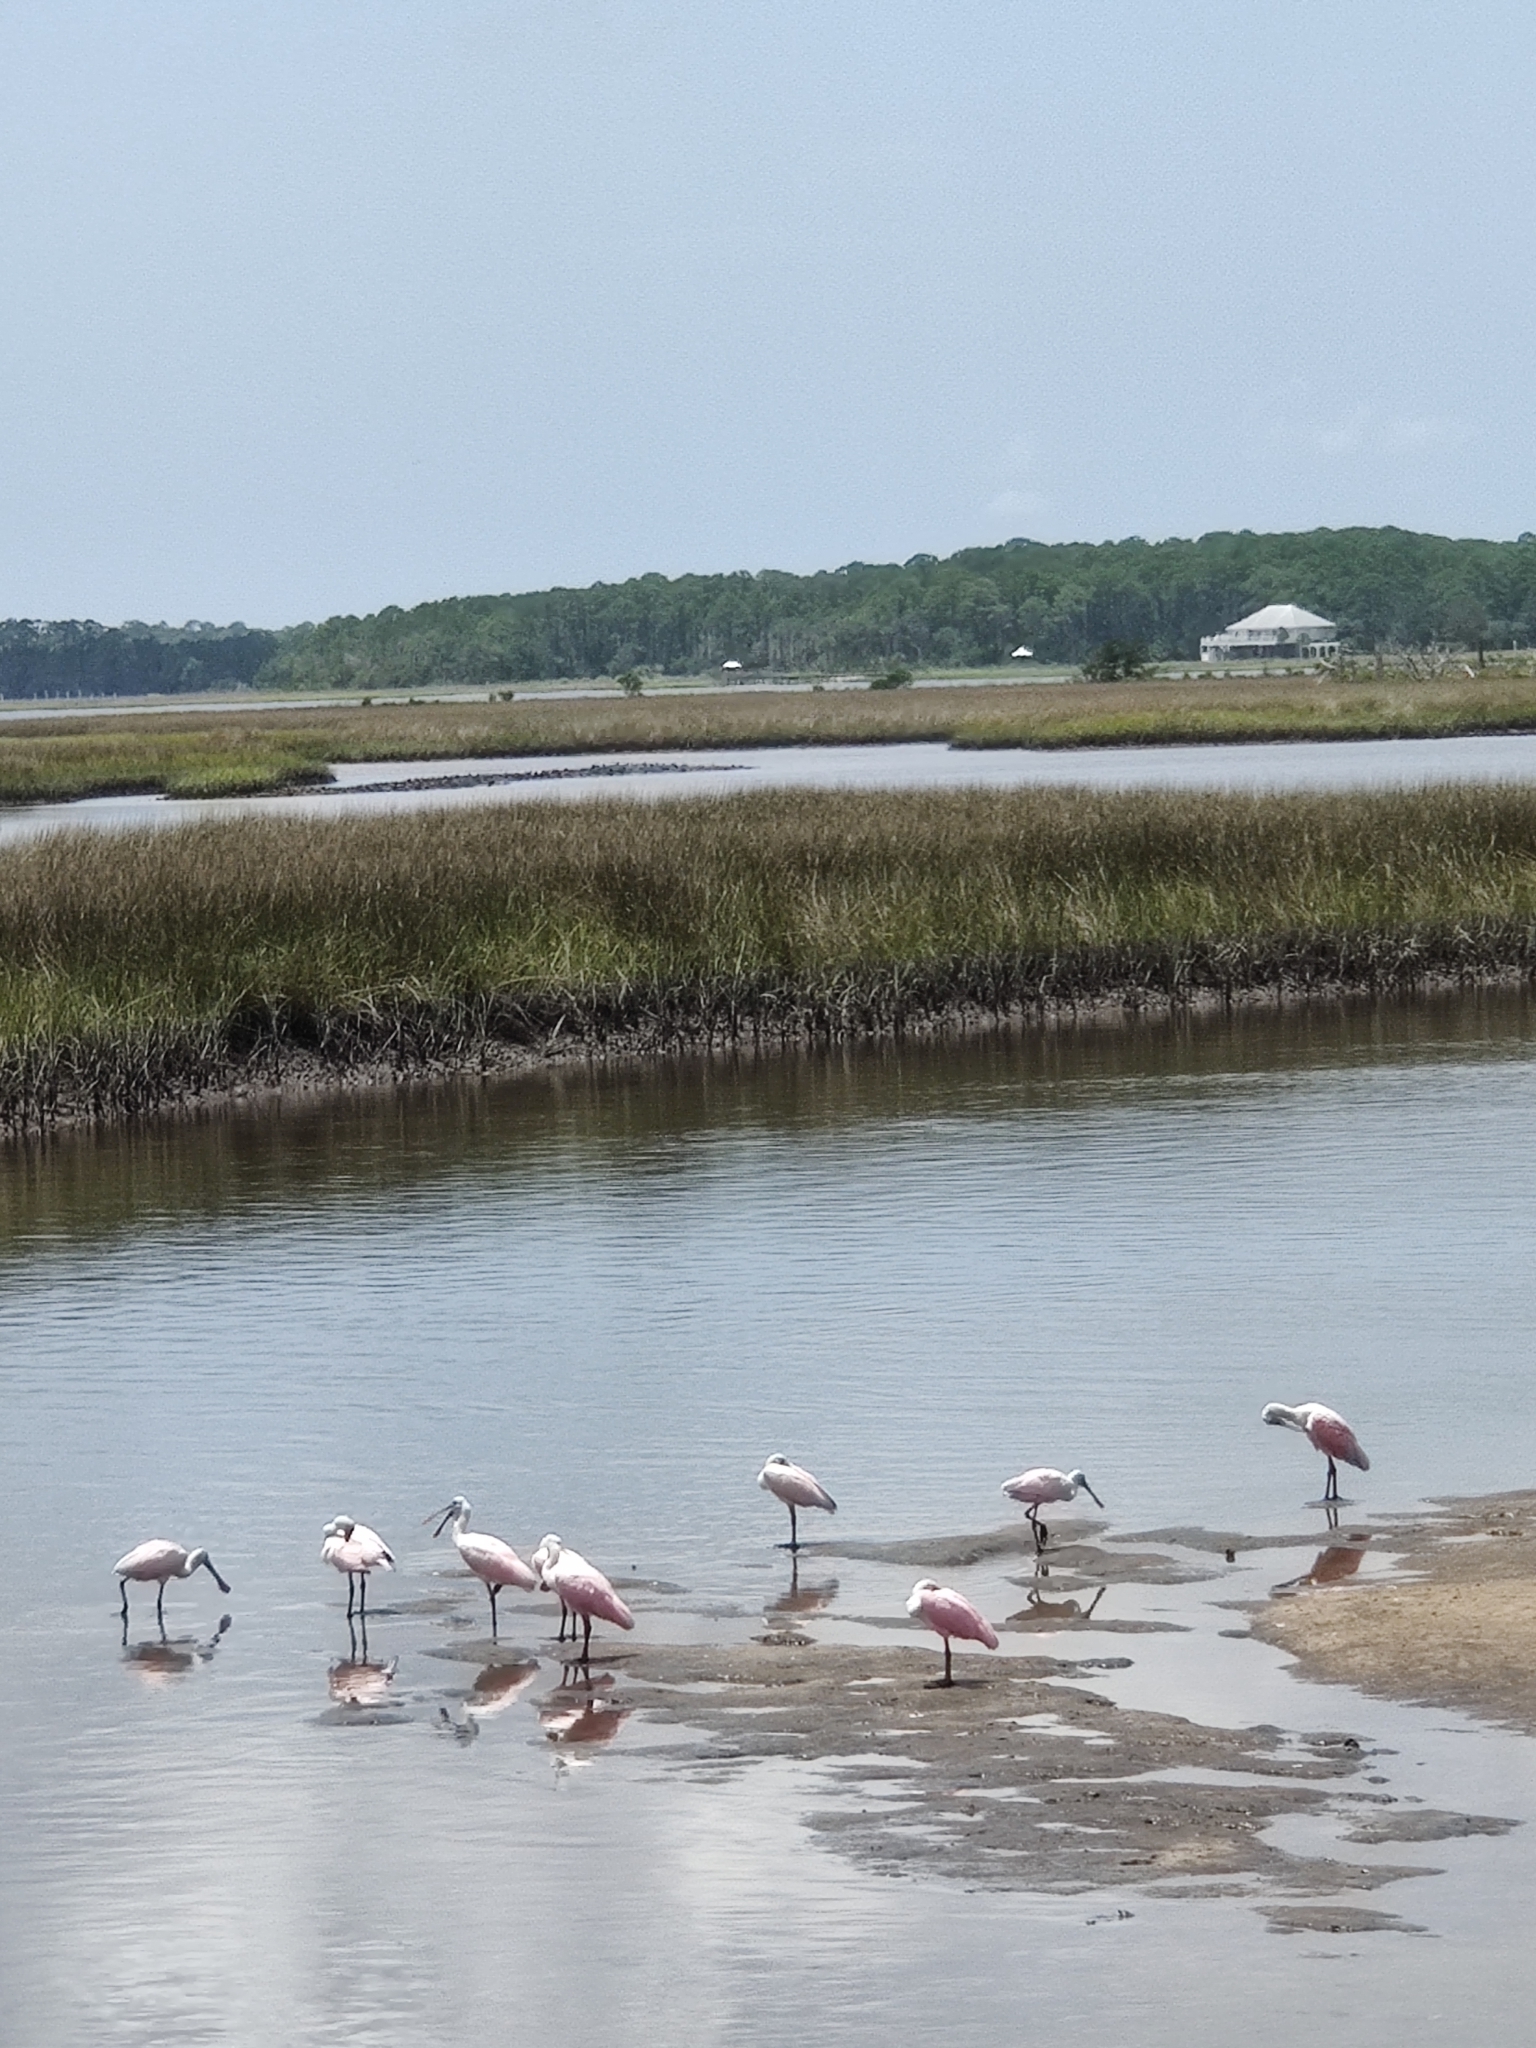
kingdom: Animalia
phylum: Chordata
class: Aves
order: Pelecaniformes
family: Threskiornithidae
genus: Platalea
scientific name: Platalea ajaja
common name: Roseate spoonbill
